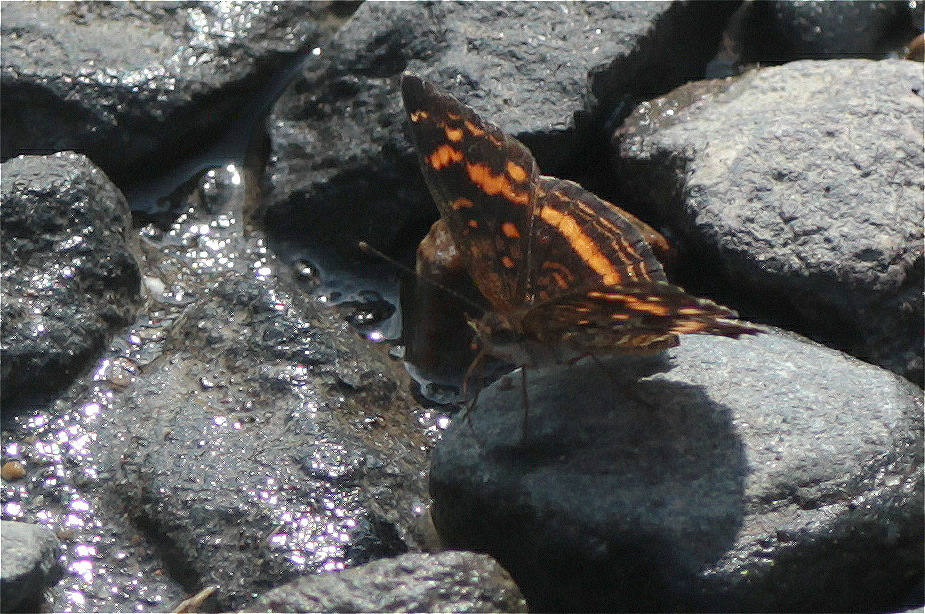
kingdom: Animalia
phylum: Arthropoda
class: Insecta
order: Lepidoptera
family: Nymphalidae
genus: Anthanassa
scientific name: Anthanassa drusilla
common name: Orange-patched crescent
